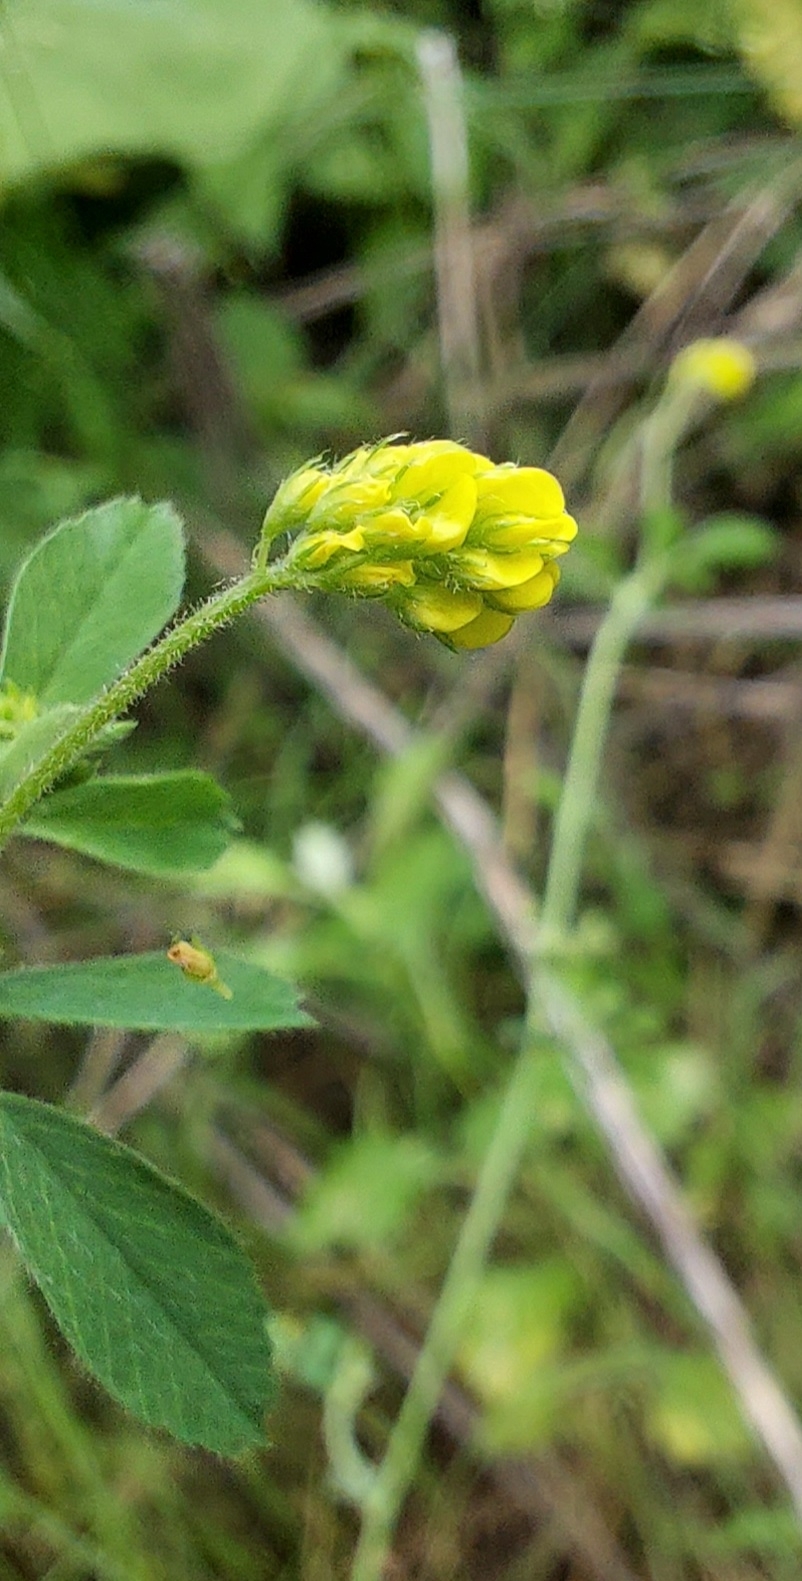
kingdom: Plantae
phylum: Tracheophyta
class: Magnoliopsida
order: Fabales
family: Fabaceae
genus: Medicago
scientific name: Medicago lupulina
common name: Black medick
